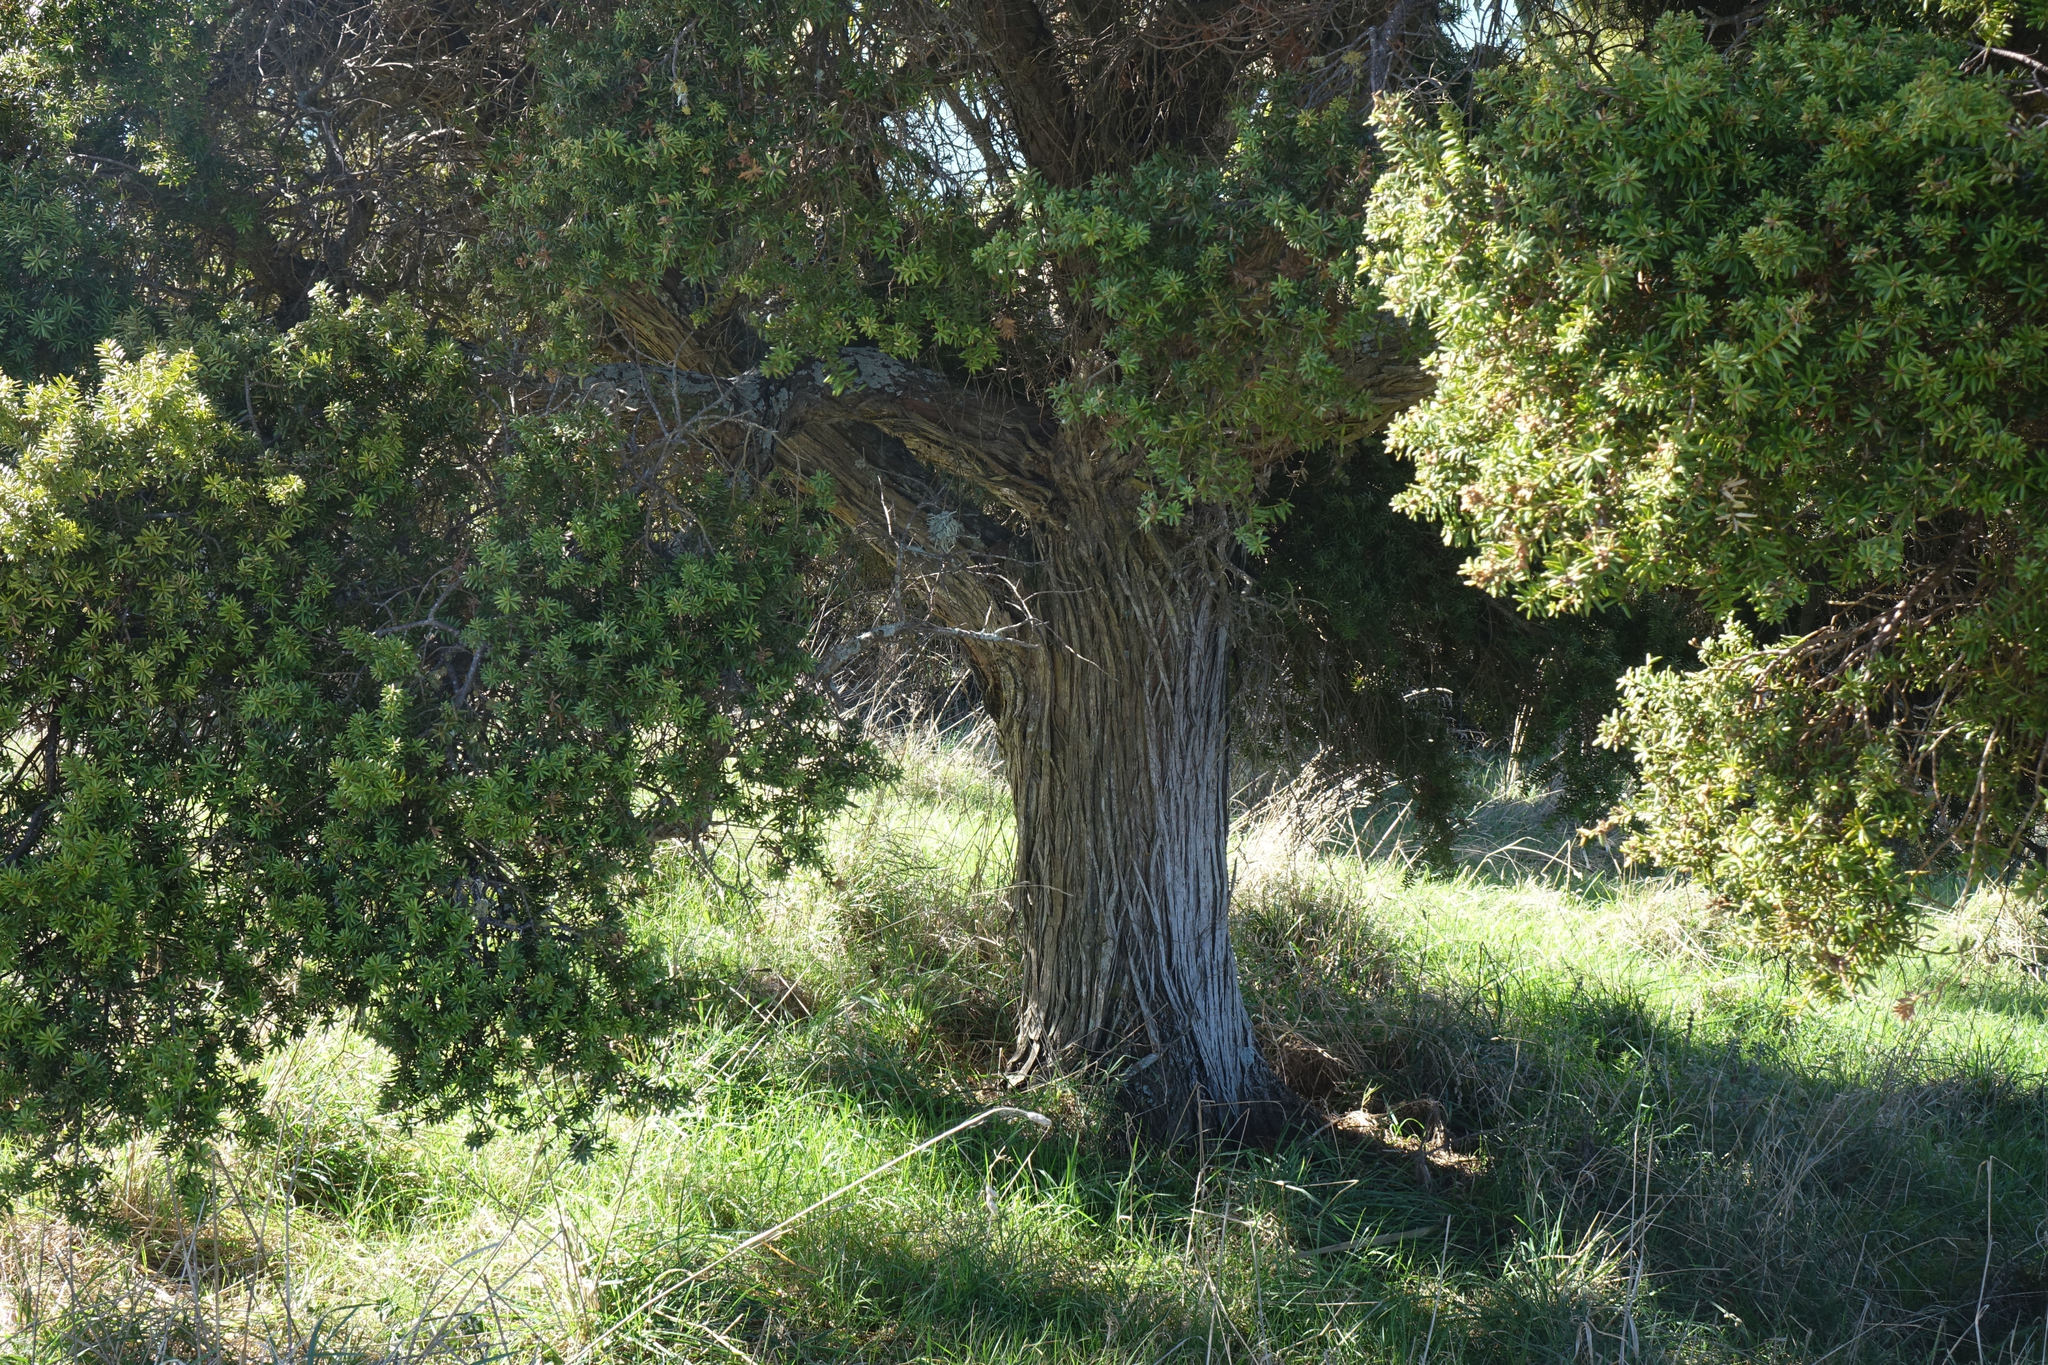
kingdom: Plantae
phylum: Tracheophyta
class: Pinopsida
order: Pinales
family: Podocarpaceae
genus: Podocarpus
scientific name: Podocarpus totara
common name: Totara
